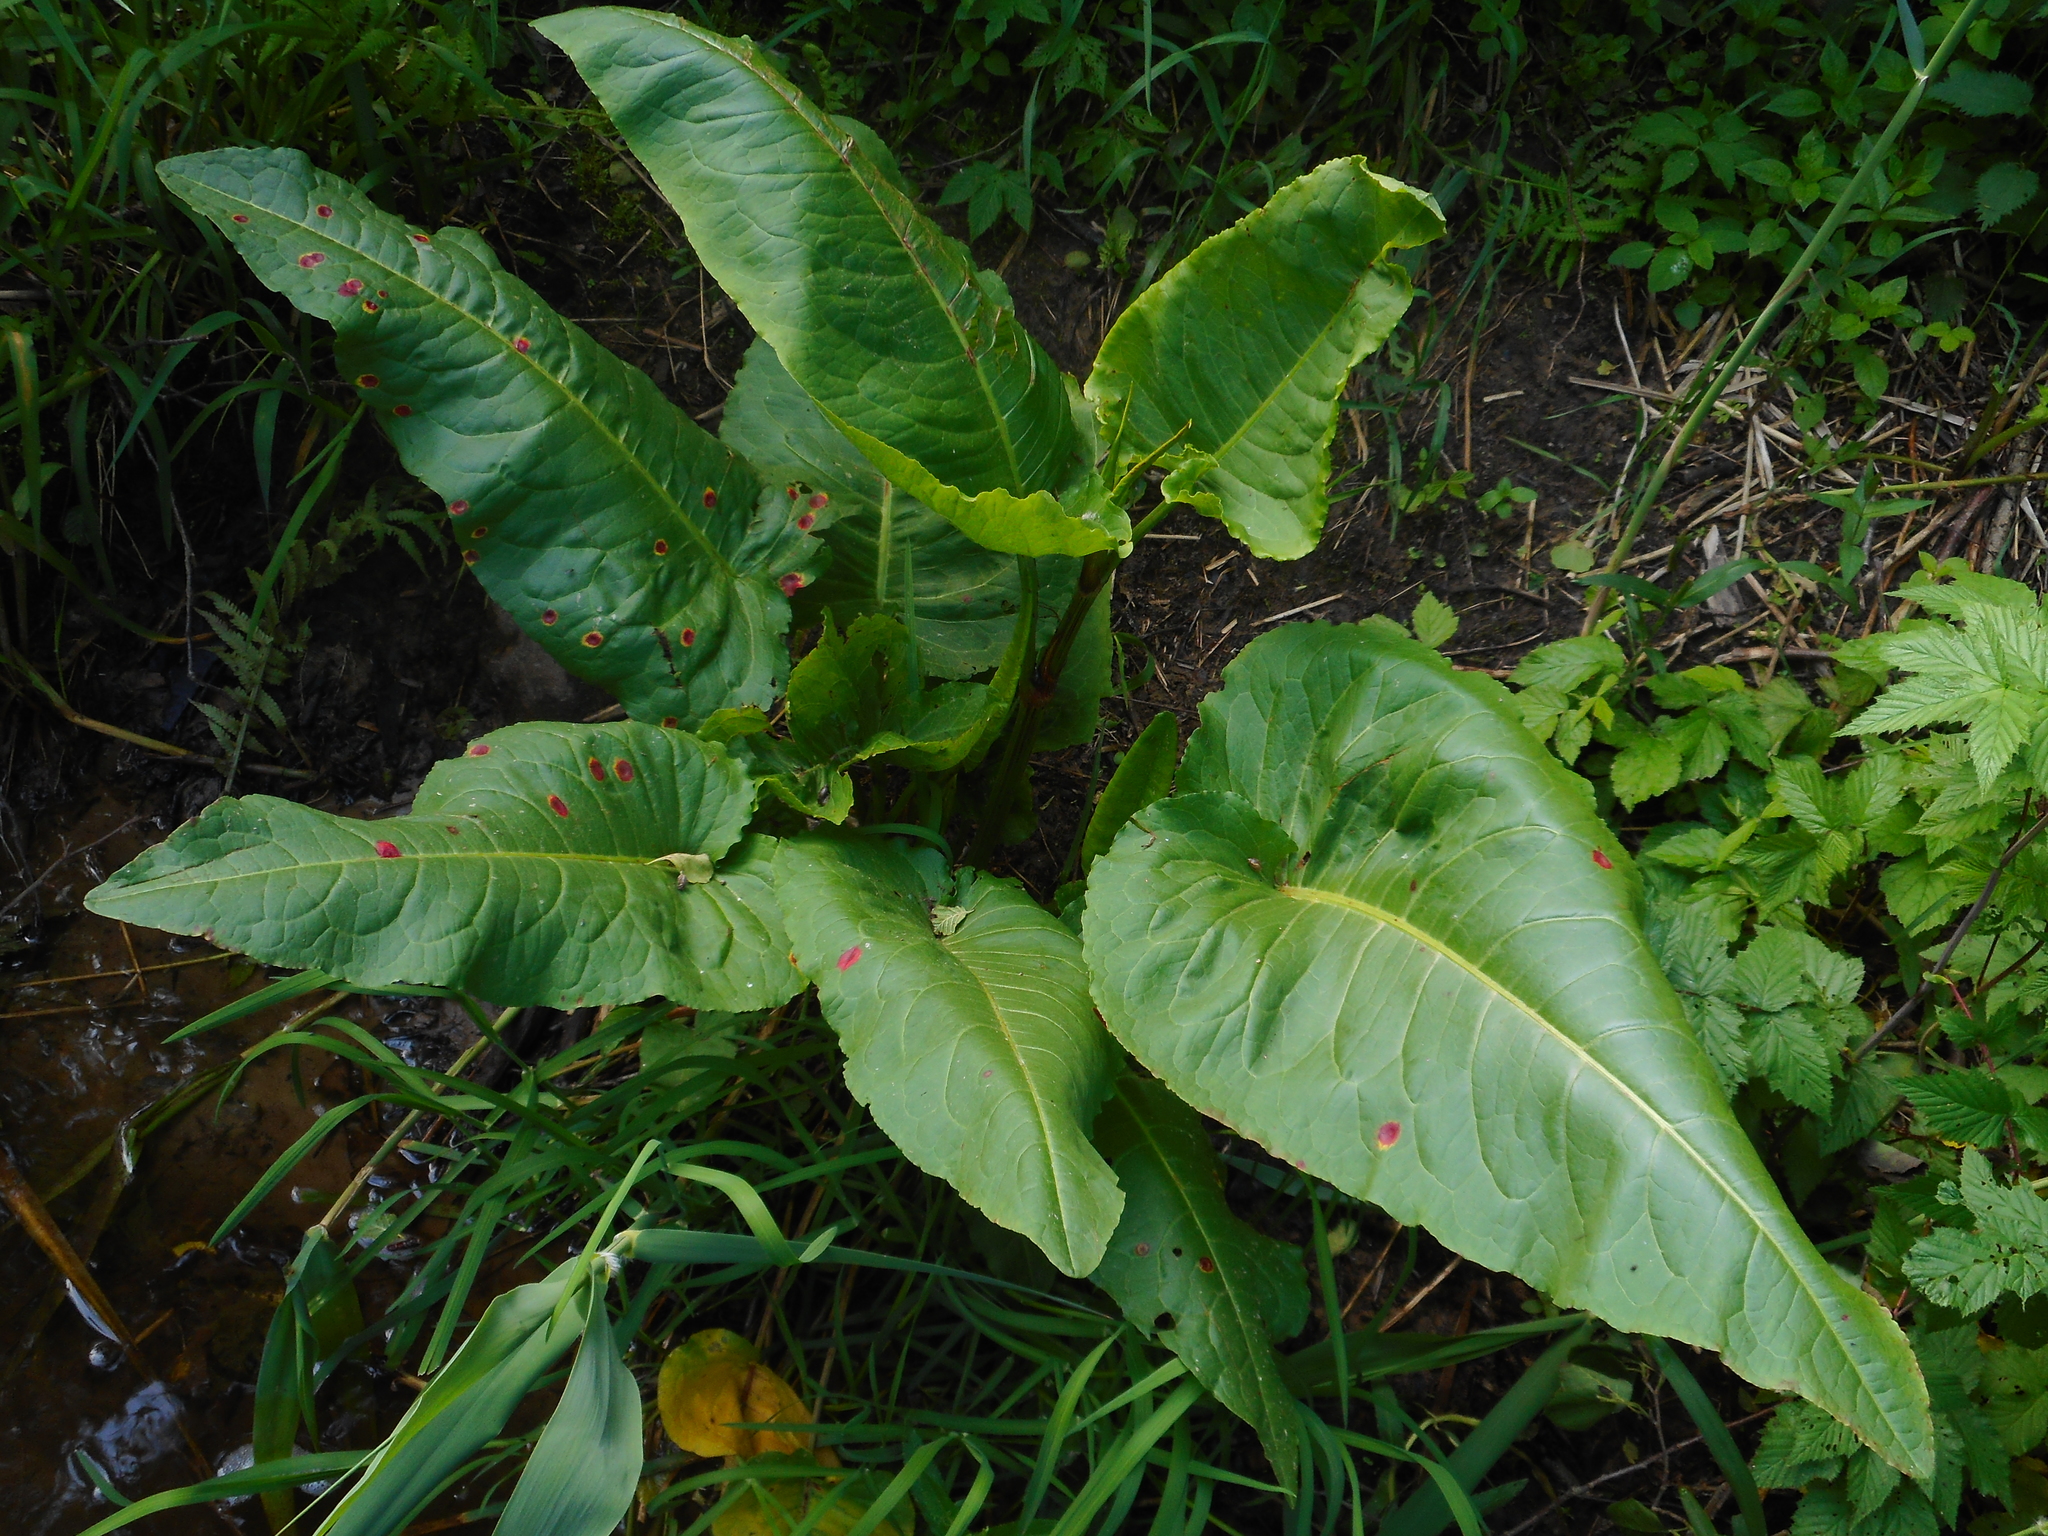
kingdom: Plantae
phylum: Tracheophyta
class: Magnoliopsida
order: Caryophyllales
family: Polygonaceae
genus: Rumex
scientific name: Rumex aquaticus
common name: Scottish dock
